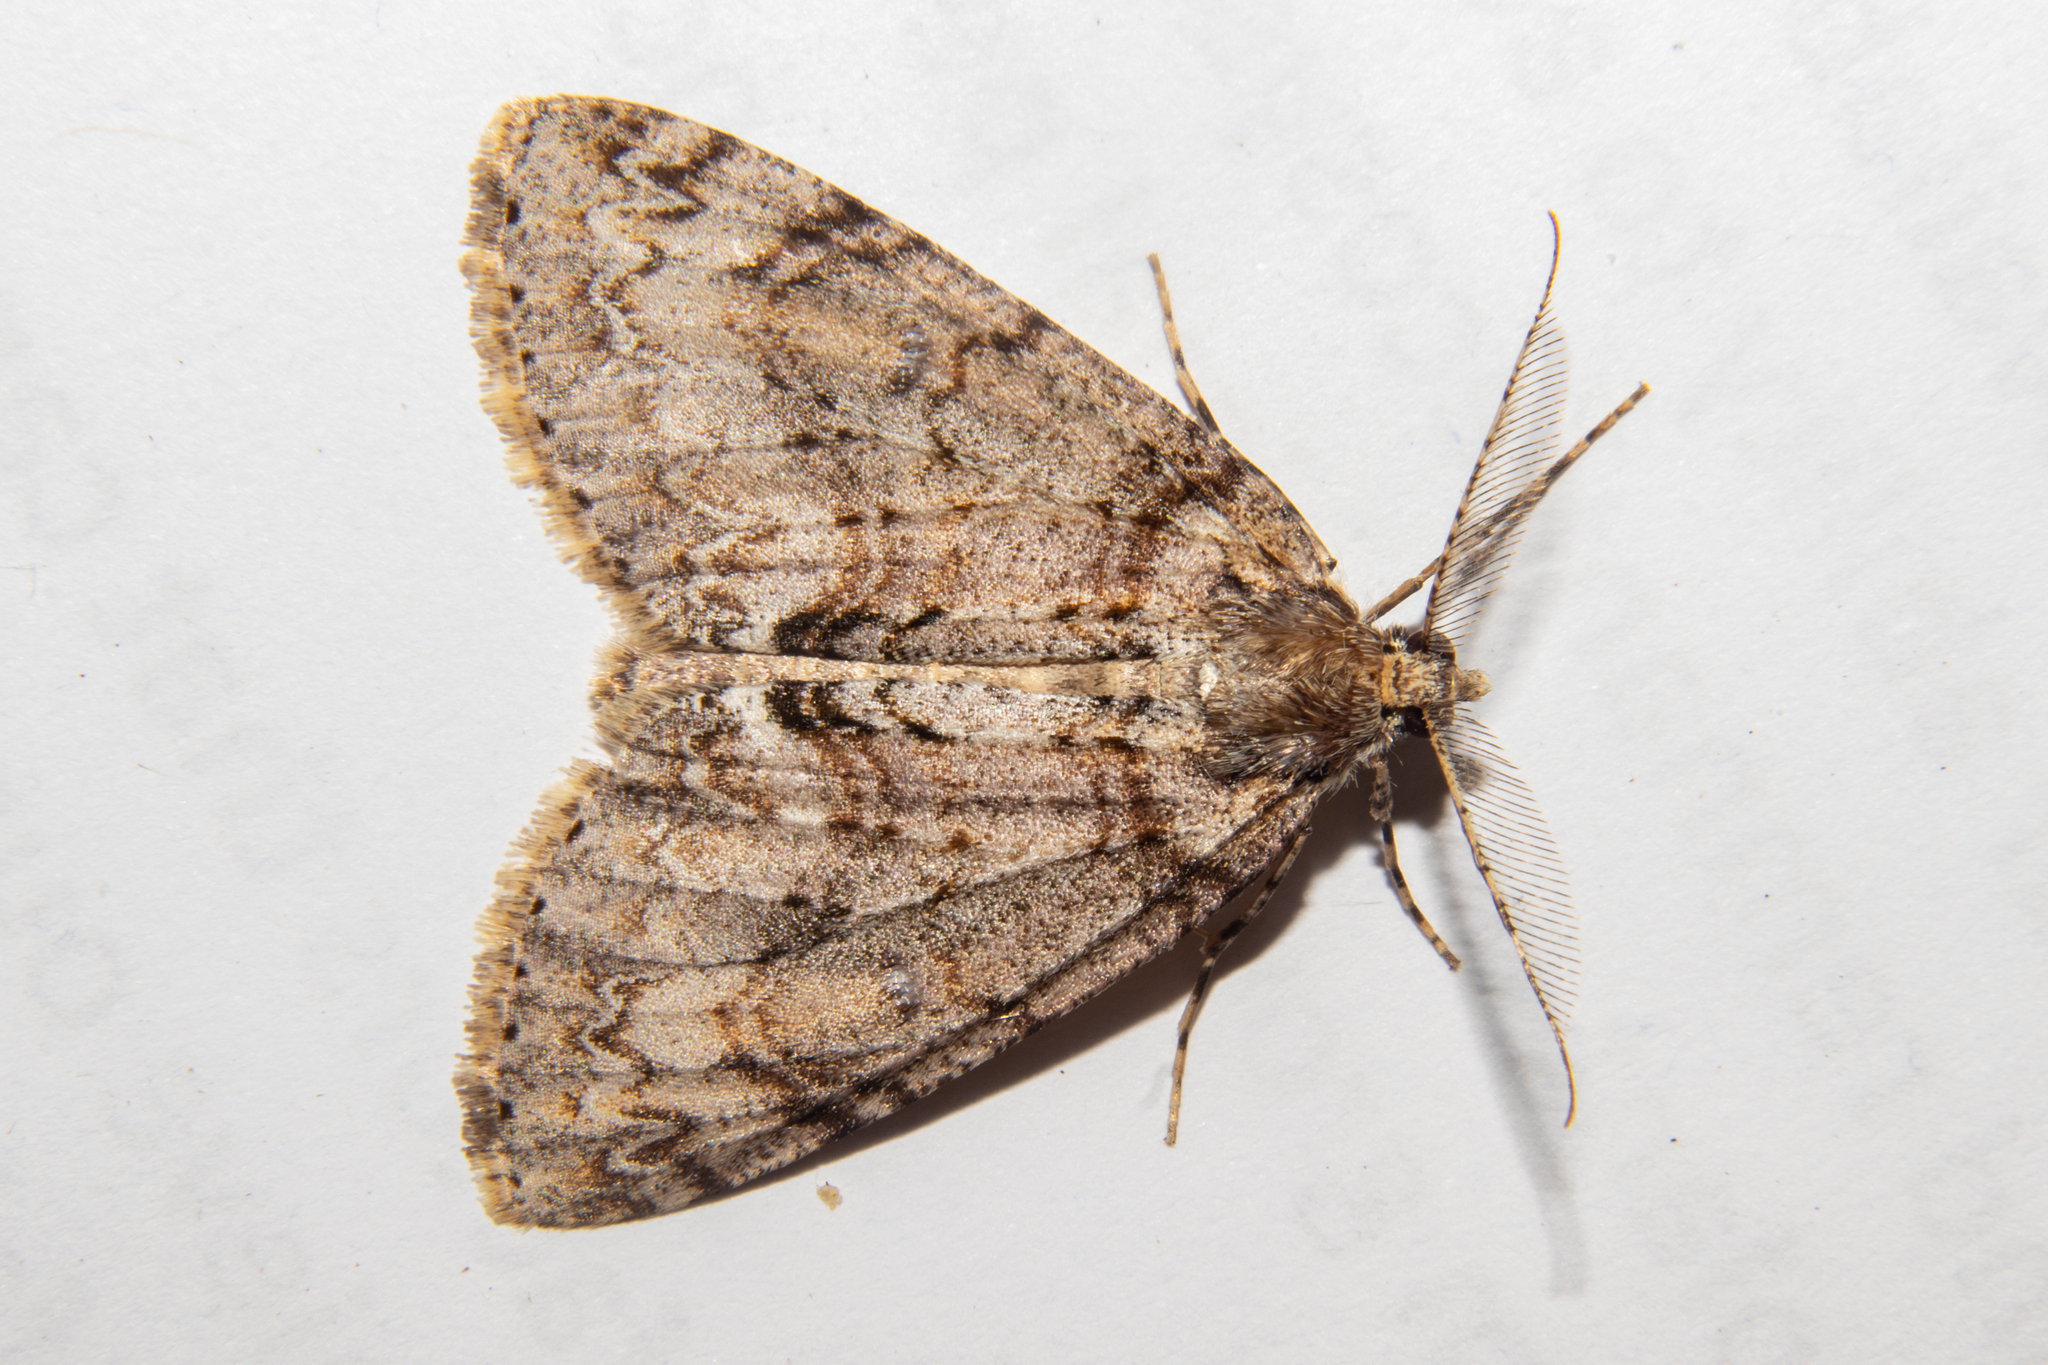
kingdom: Animalia
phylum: Arthropoda
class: Insecta
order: Lepidoptera
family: Geometridae
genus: Pseudocoremia
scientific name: Pseudocoremia suavis
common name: Common forest looper
